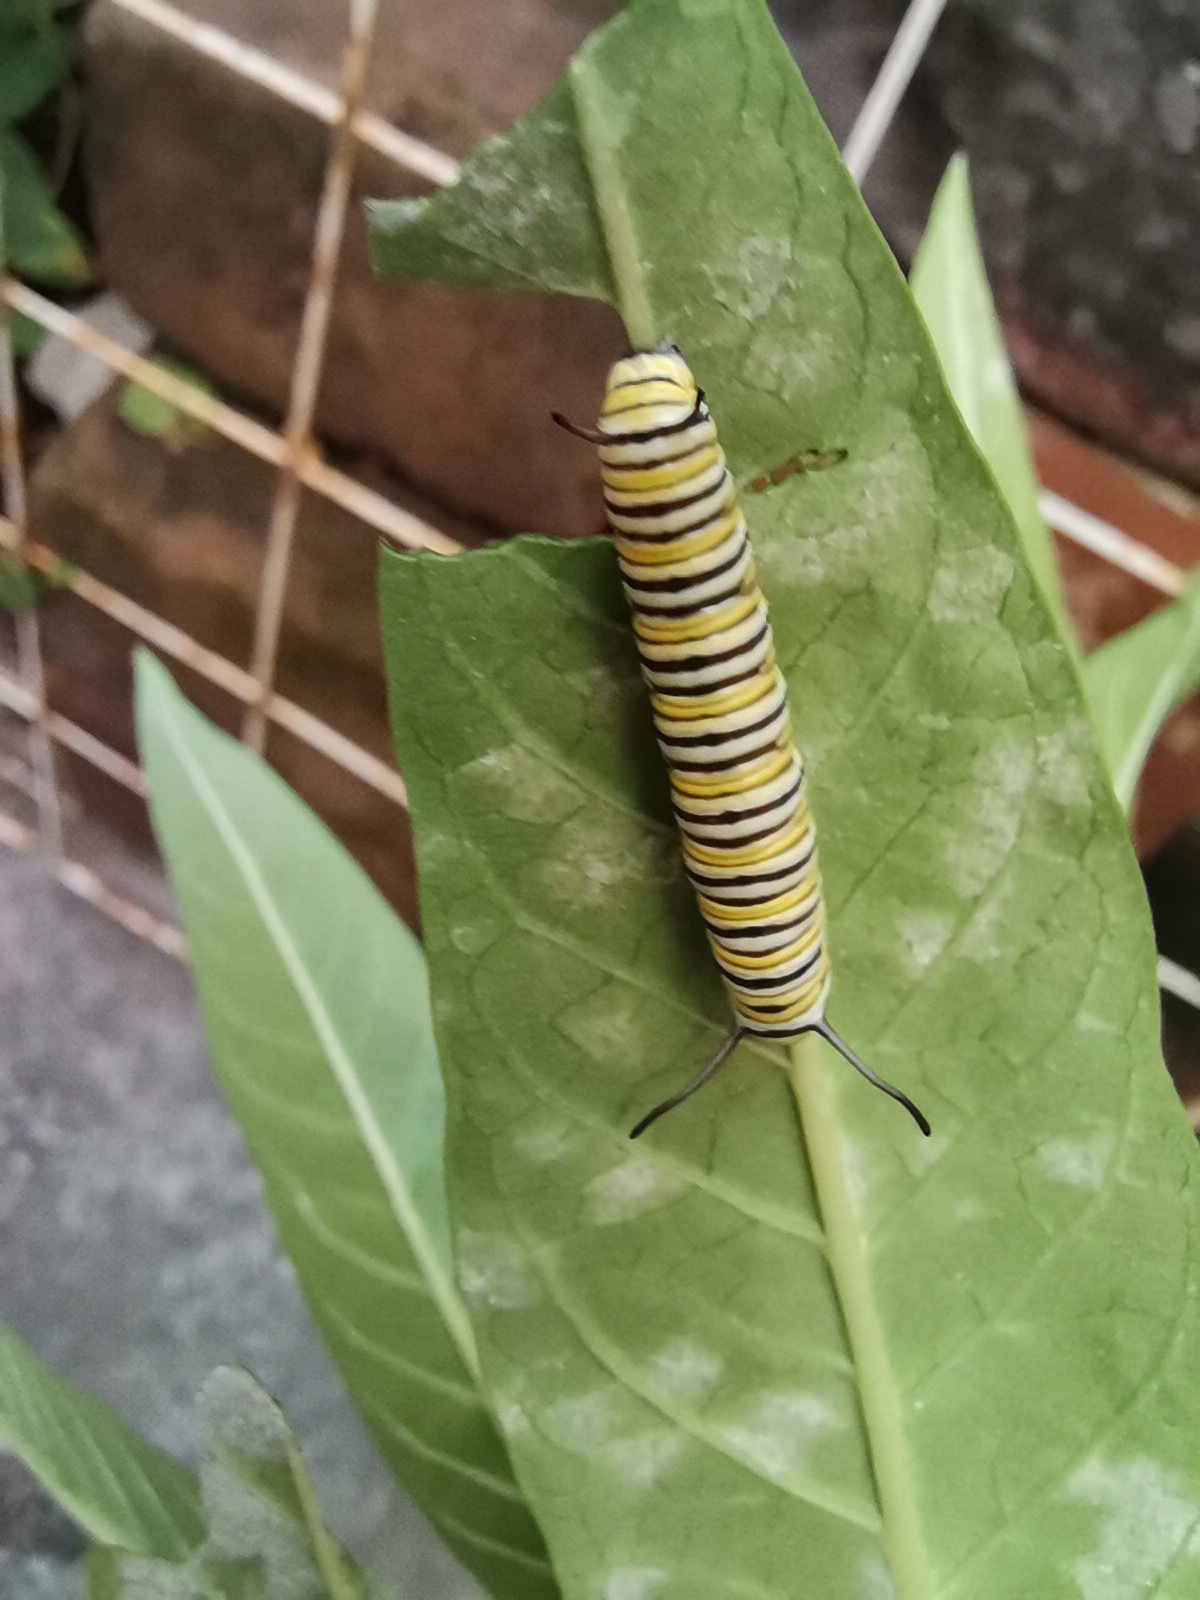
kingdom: Animalia
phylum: Arthropoda
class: Insecta
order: Lepidoptera
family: Nymphalidae
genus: Danaus
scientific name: Danaus plexippus
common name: Monarch
